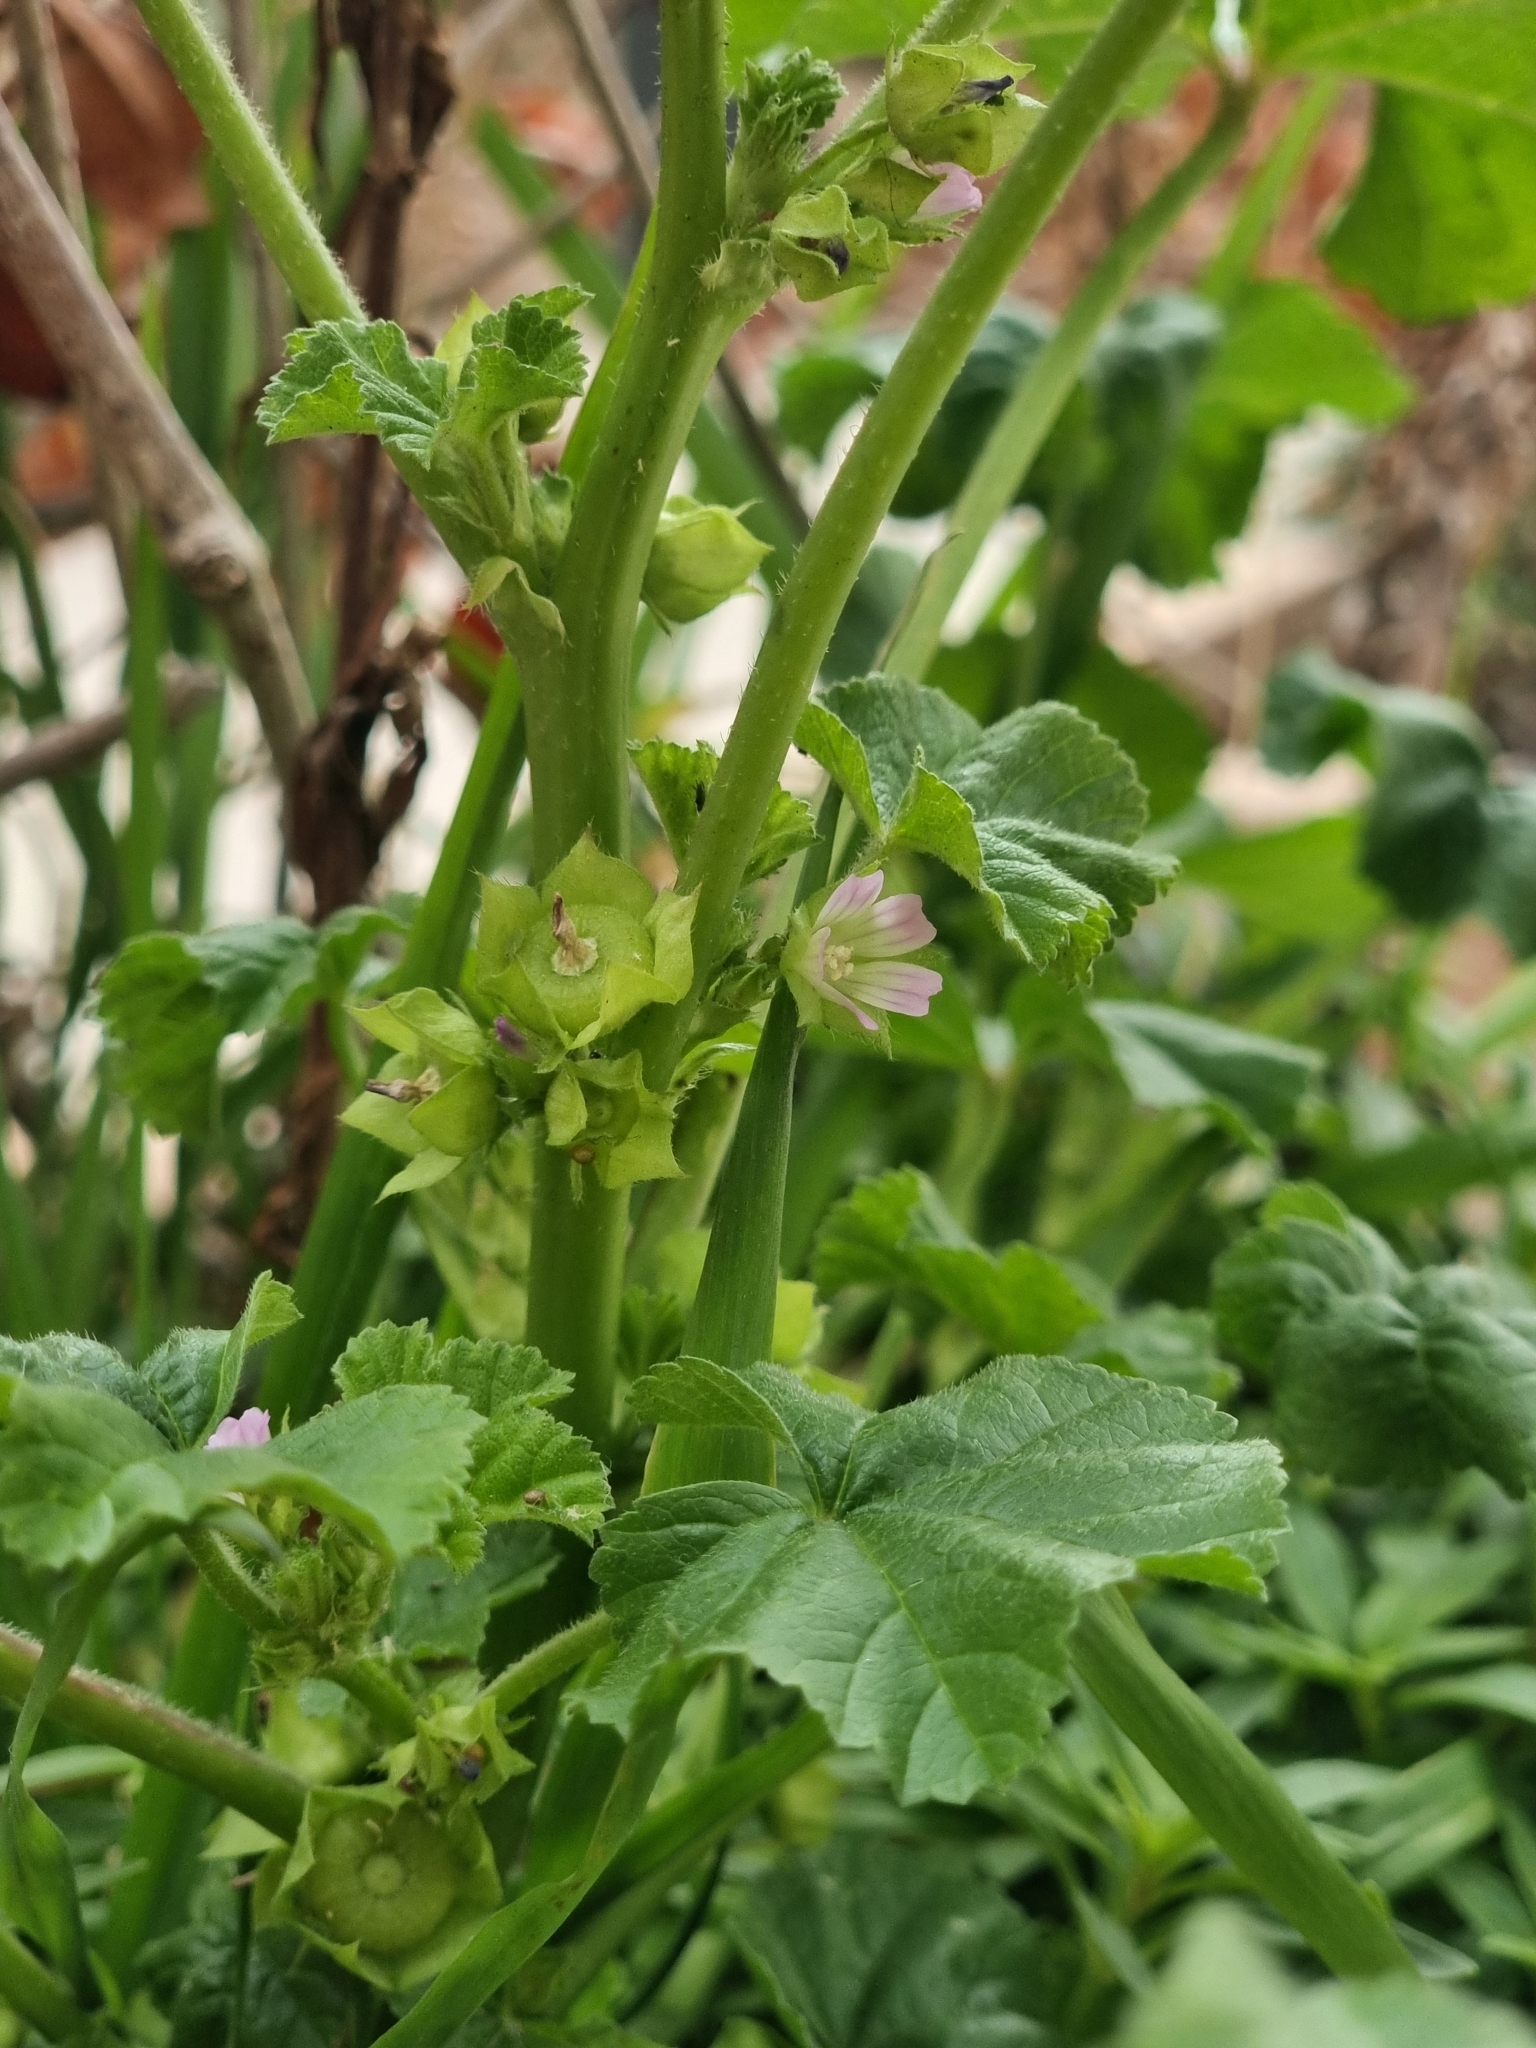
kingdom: Plantae
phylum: Tracheophyta
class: Magnoliopsida
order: Malvales
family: Malvaceae
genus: Malva
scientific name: Malva parviflora
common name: Least mallow
